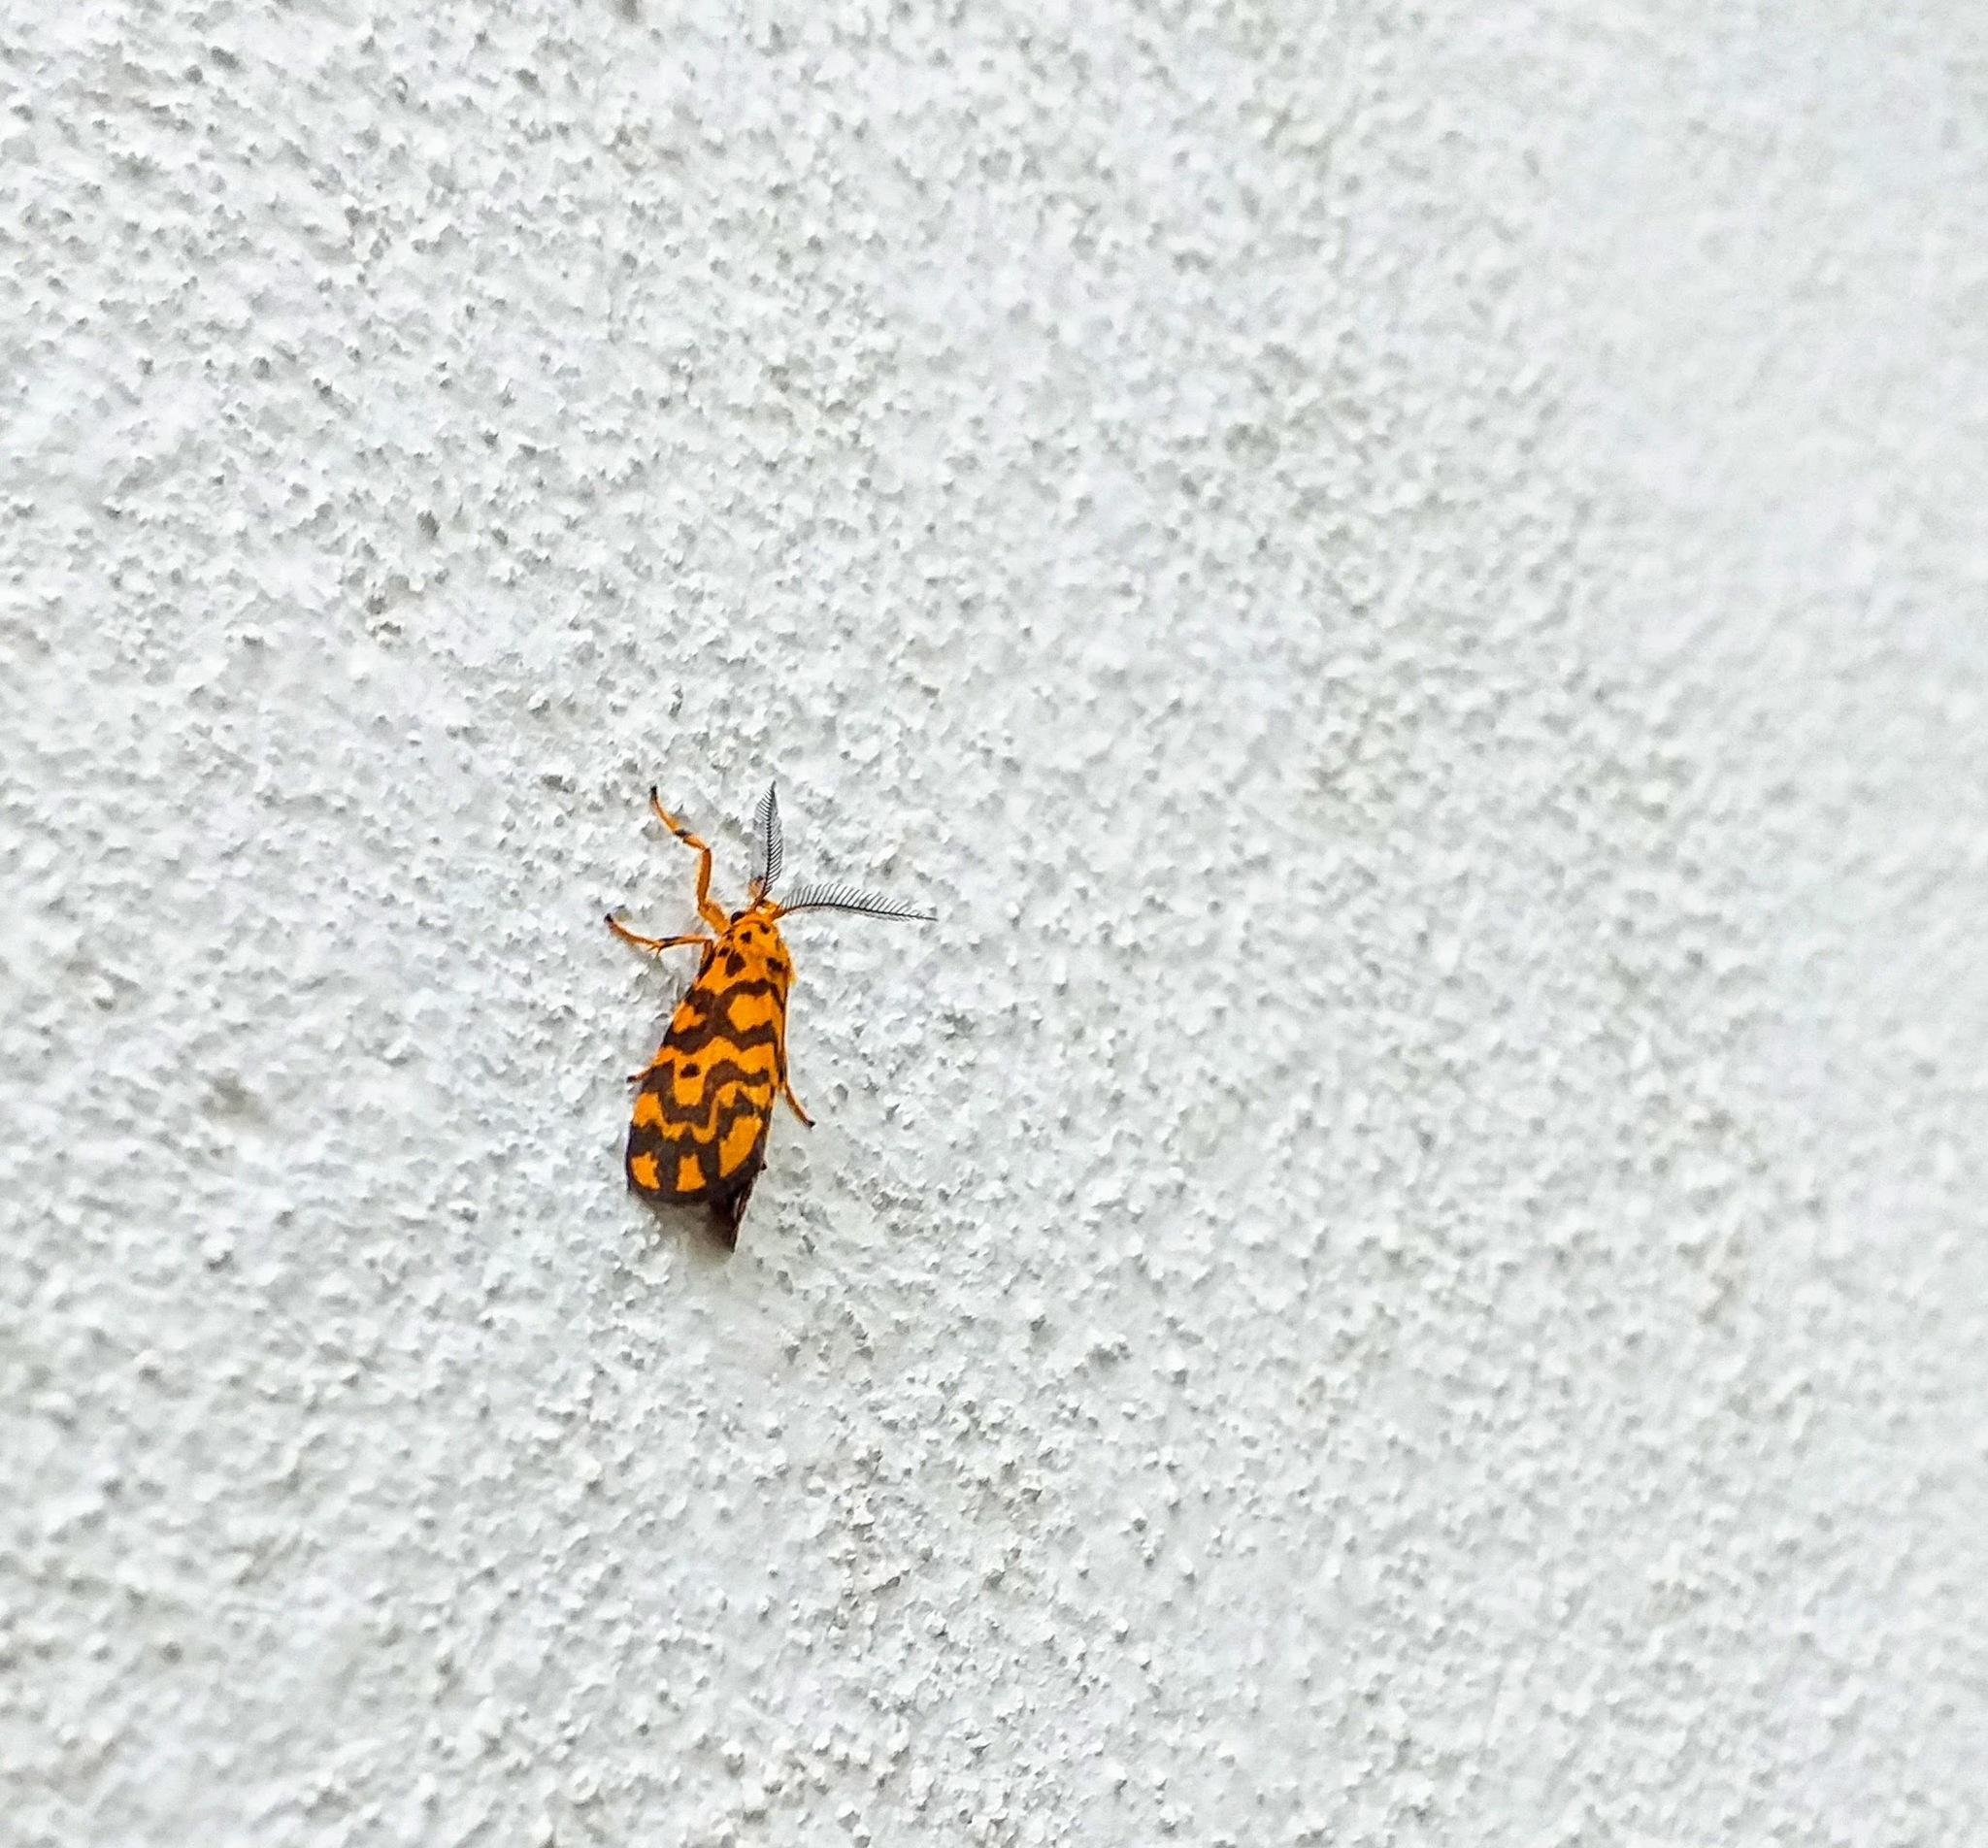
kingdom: Animalia
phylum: Arthropoda
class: Insecta
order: Lepidoptera
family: Erebidae
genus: Nepita
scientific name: Nepita conferta
